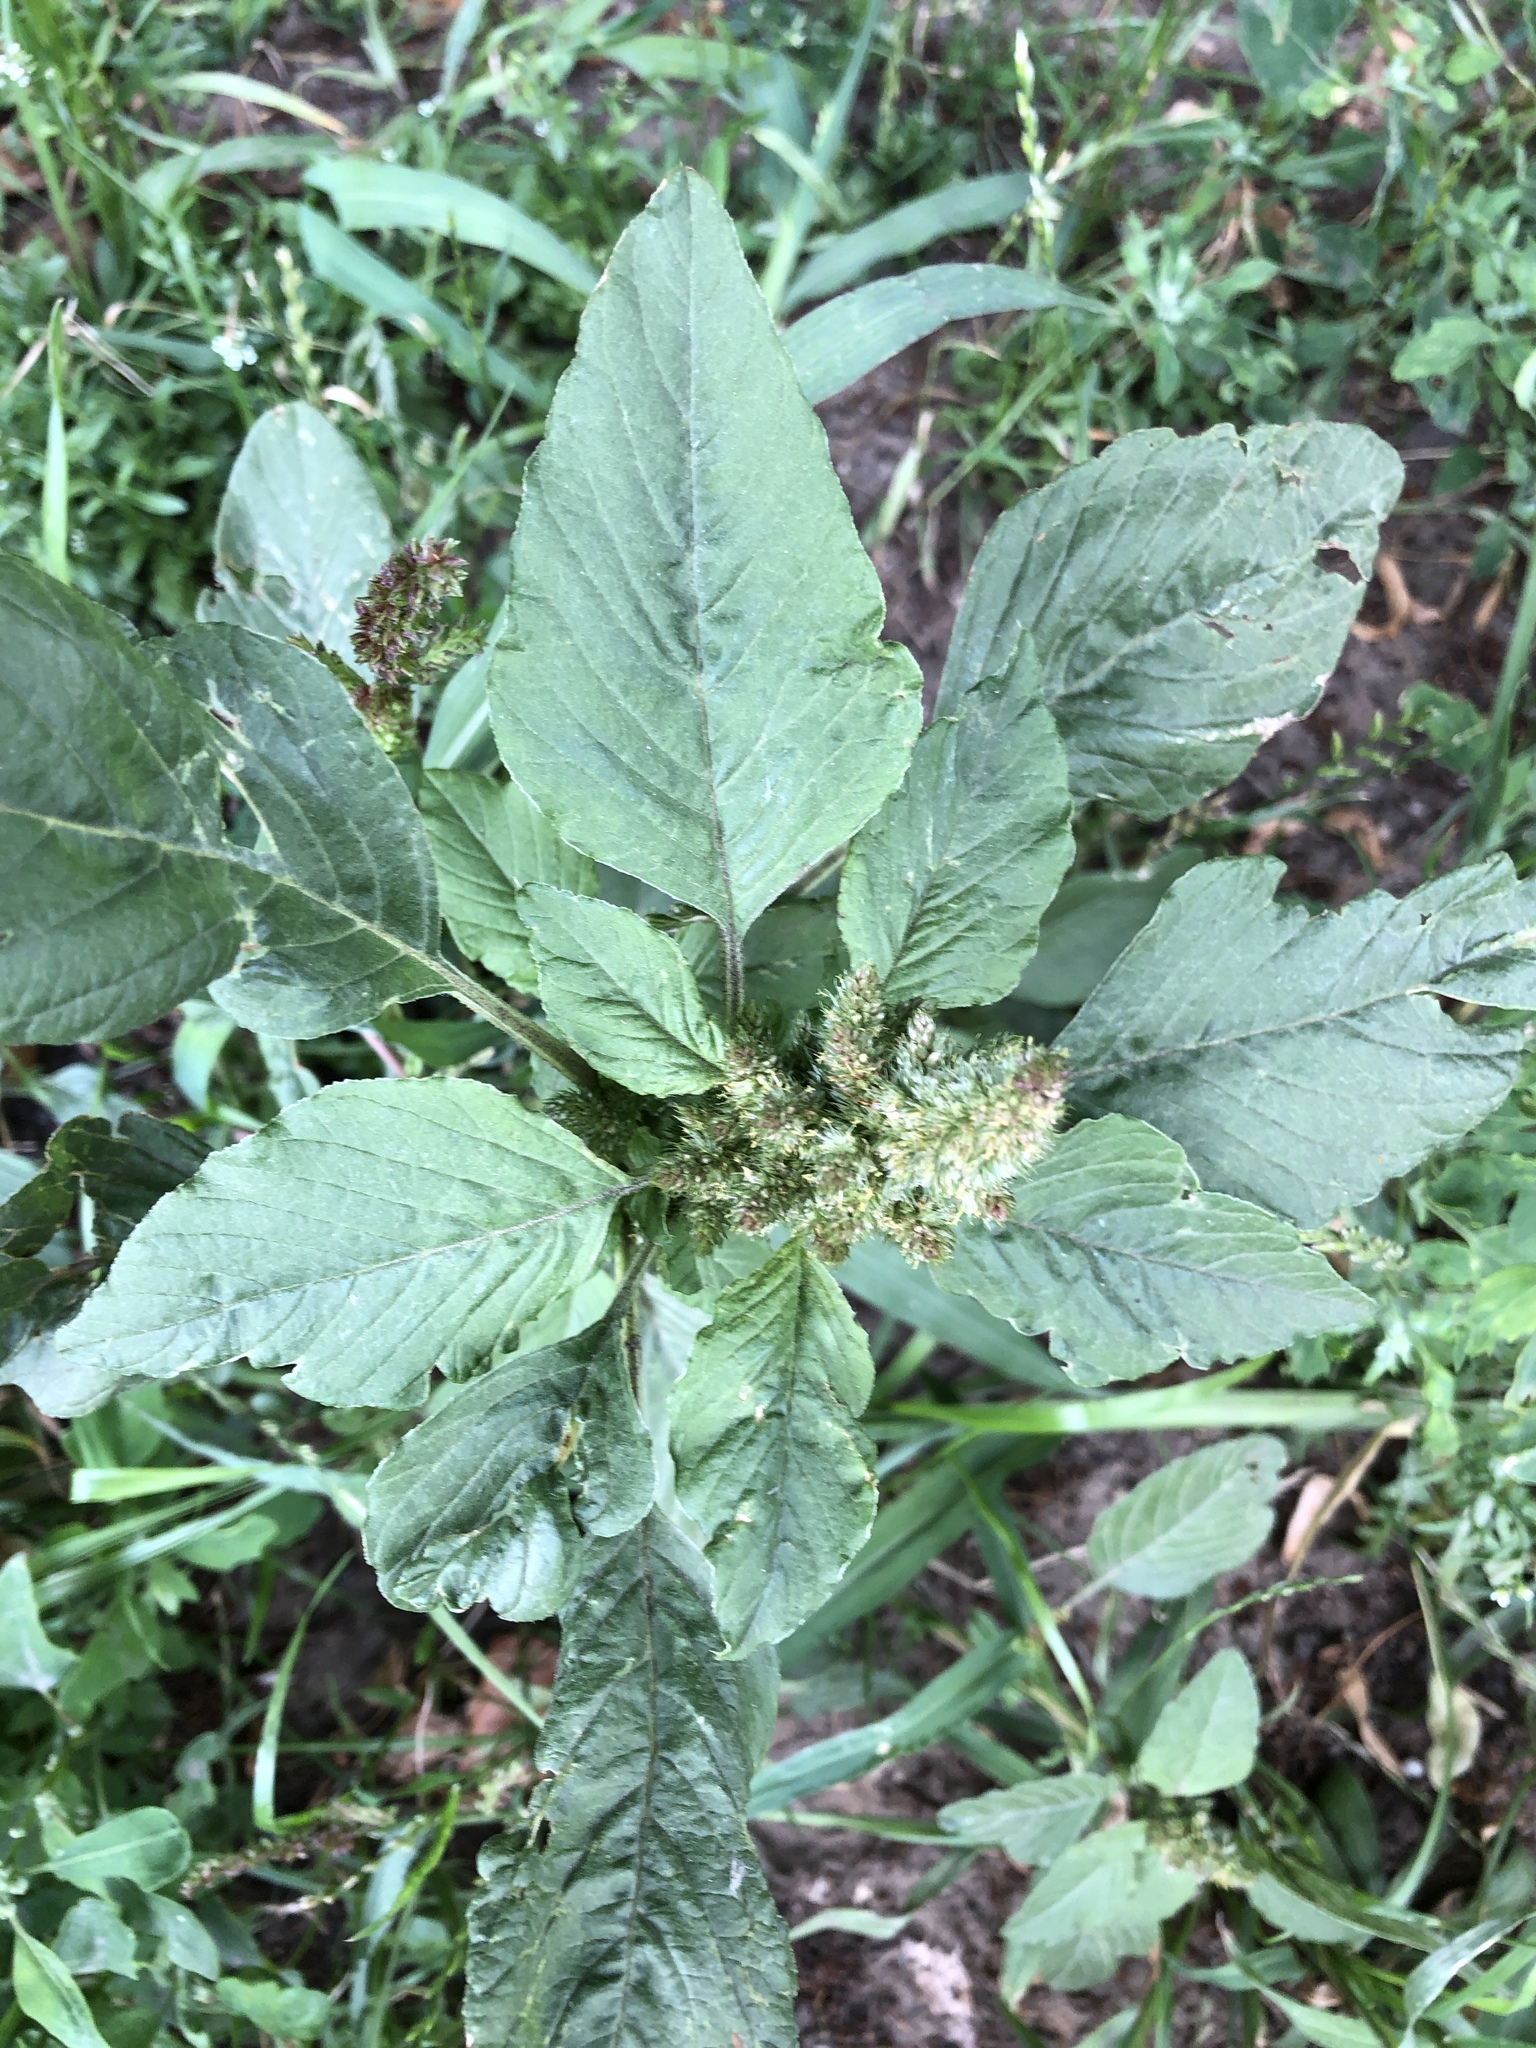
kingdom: Plantae
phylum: Tracheophyta
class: Magnoliopsida
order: Caryophyllales
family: Amaranthaceae
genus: Amaranthus
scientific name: Amaranthus retroflexus
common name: Redroot amaranth
